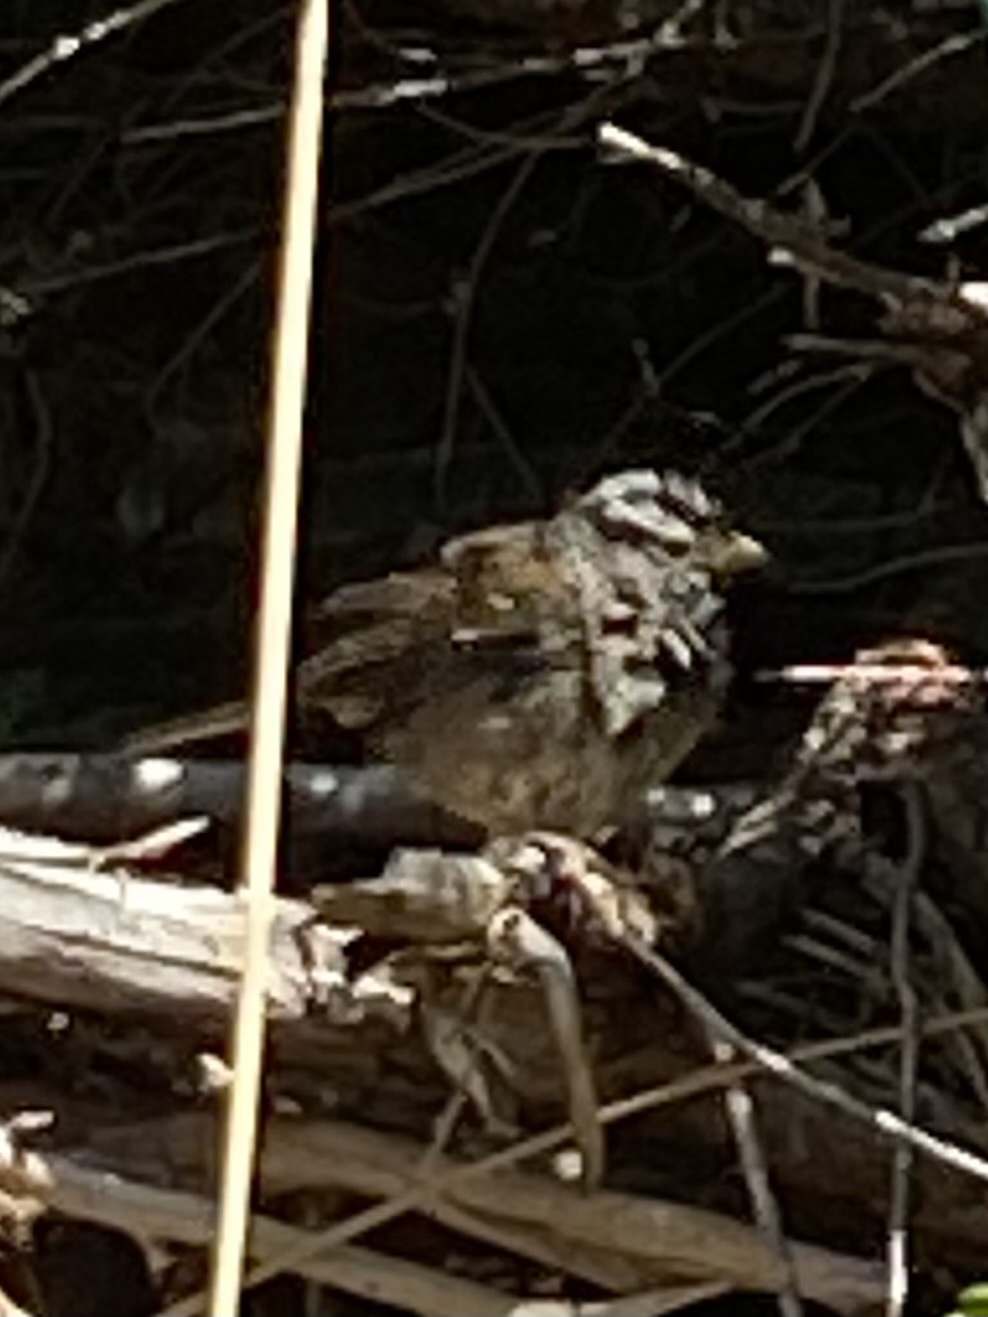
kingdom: Animalia
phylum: Chordata
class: Aves
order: Passeriformes
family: Passerellidae
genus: Zonotrichia
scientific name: Zonotrichia leucophrys
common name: White-crowned sparrow
